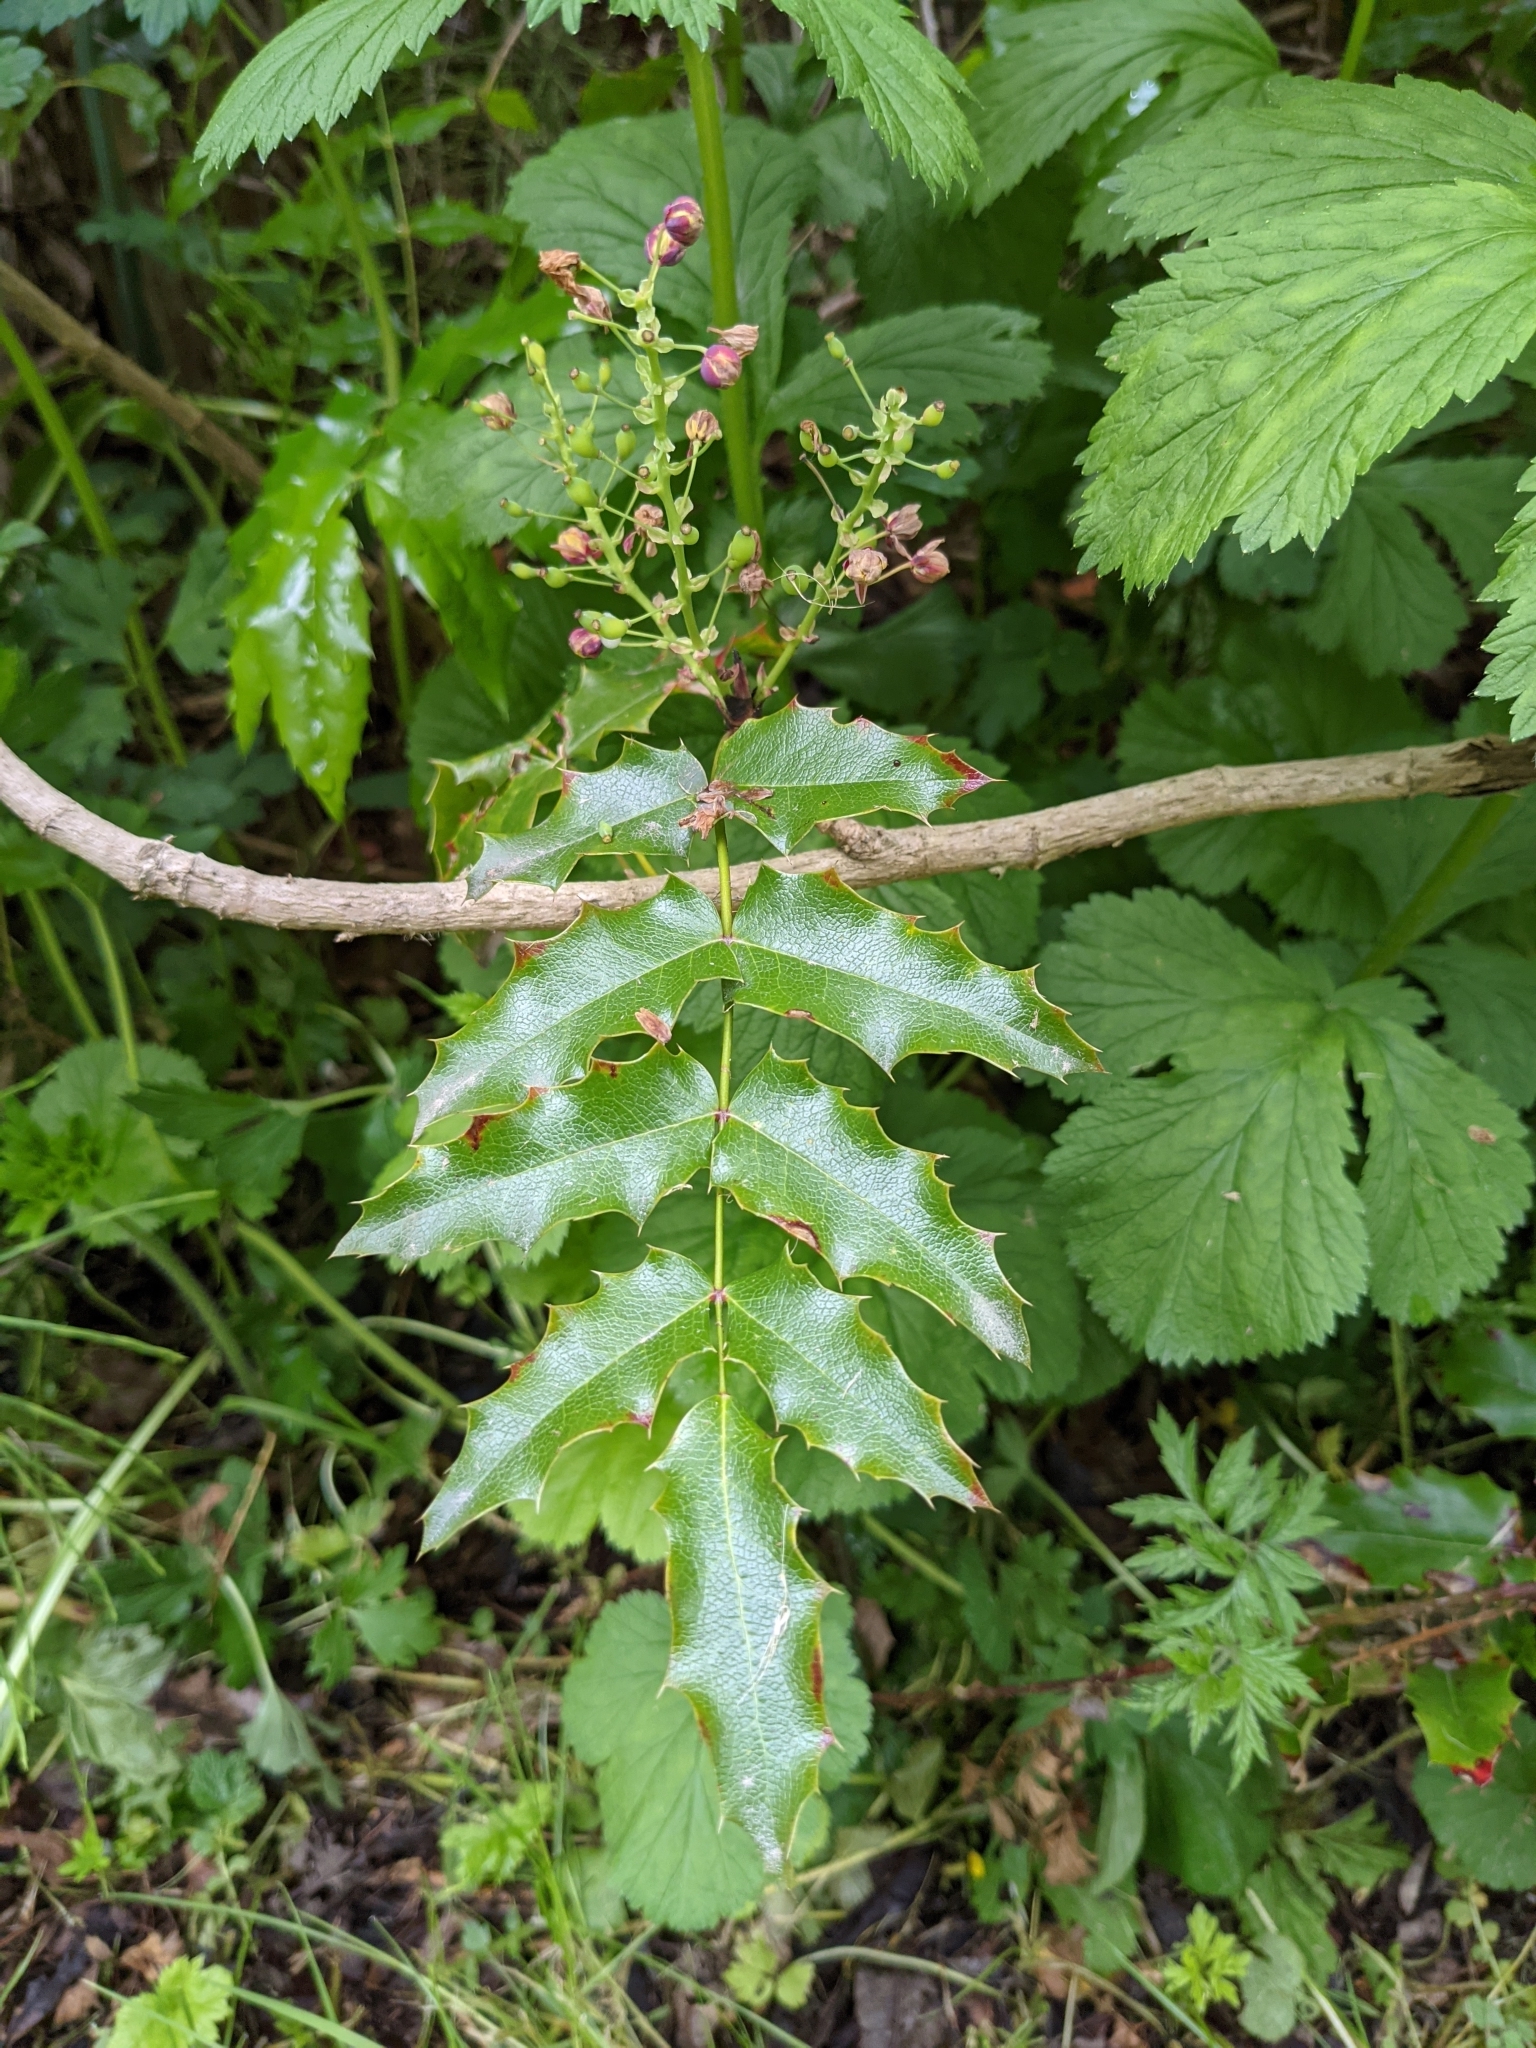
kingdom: Plantae
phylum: Tracheophyta
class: Magnoliopsida
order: Ranunculales
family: Berberidaceae
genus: Mahonia
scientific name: Mahonia aquifolium
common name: Oregon-grape
